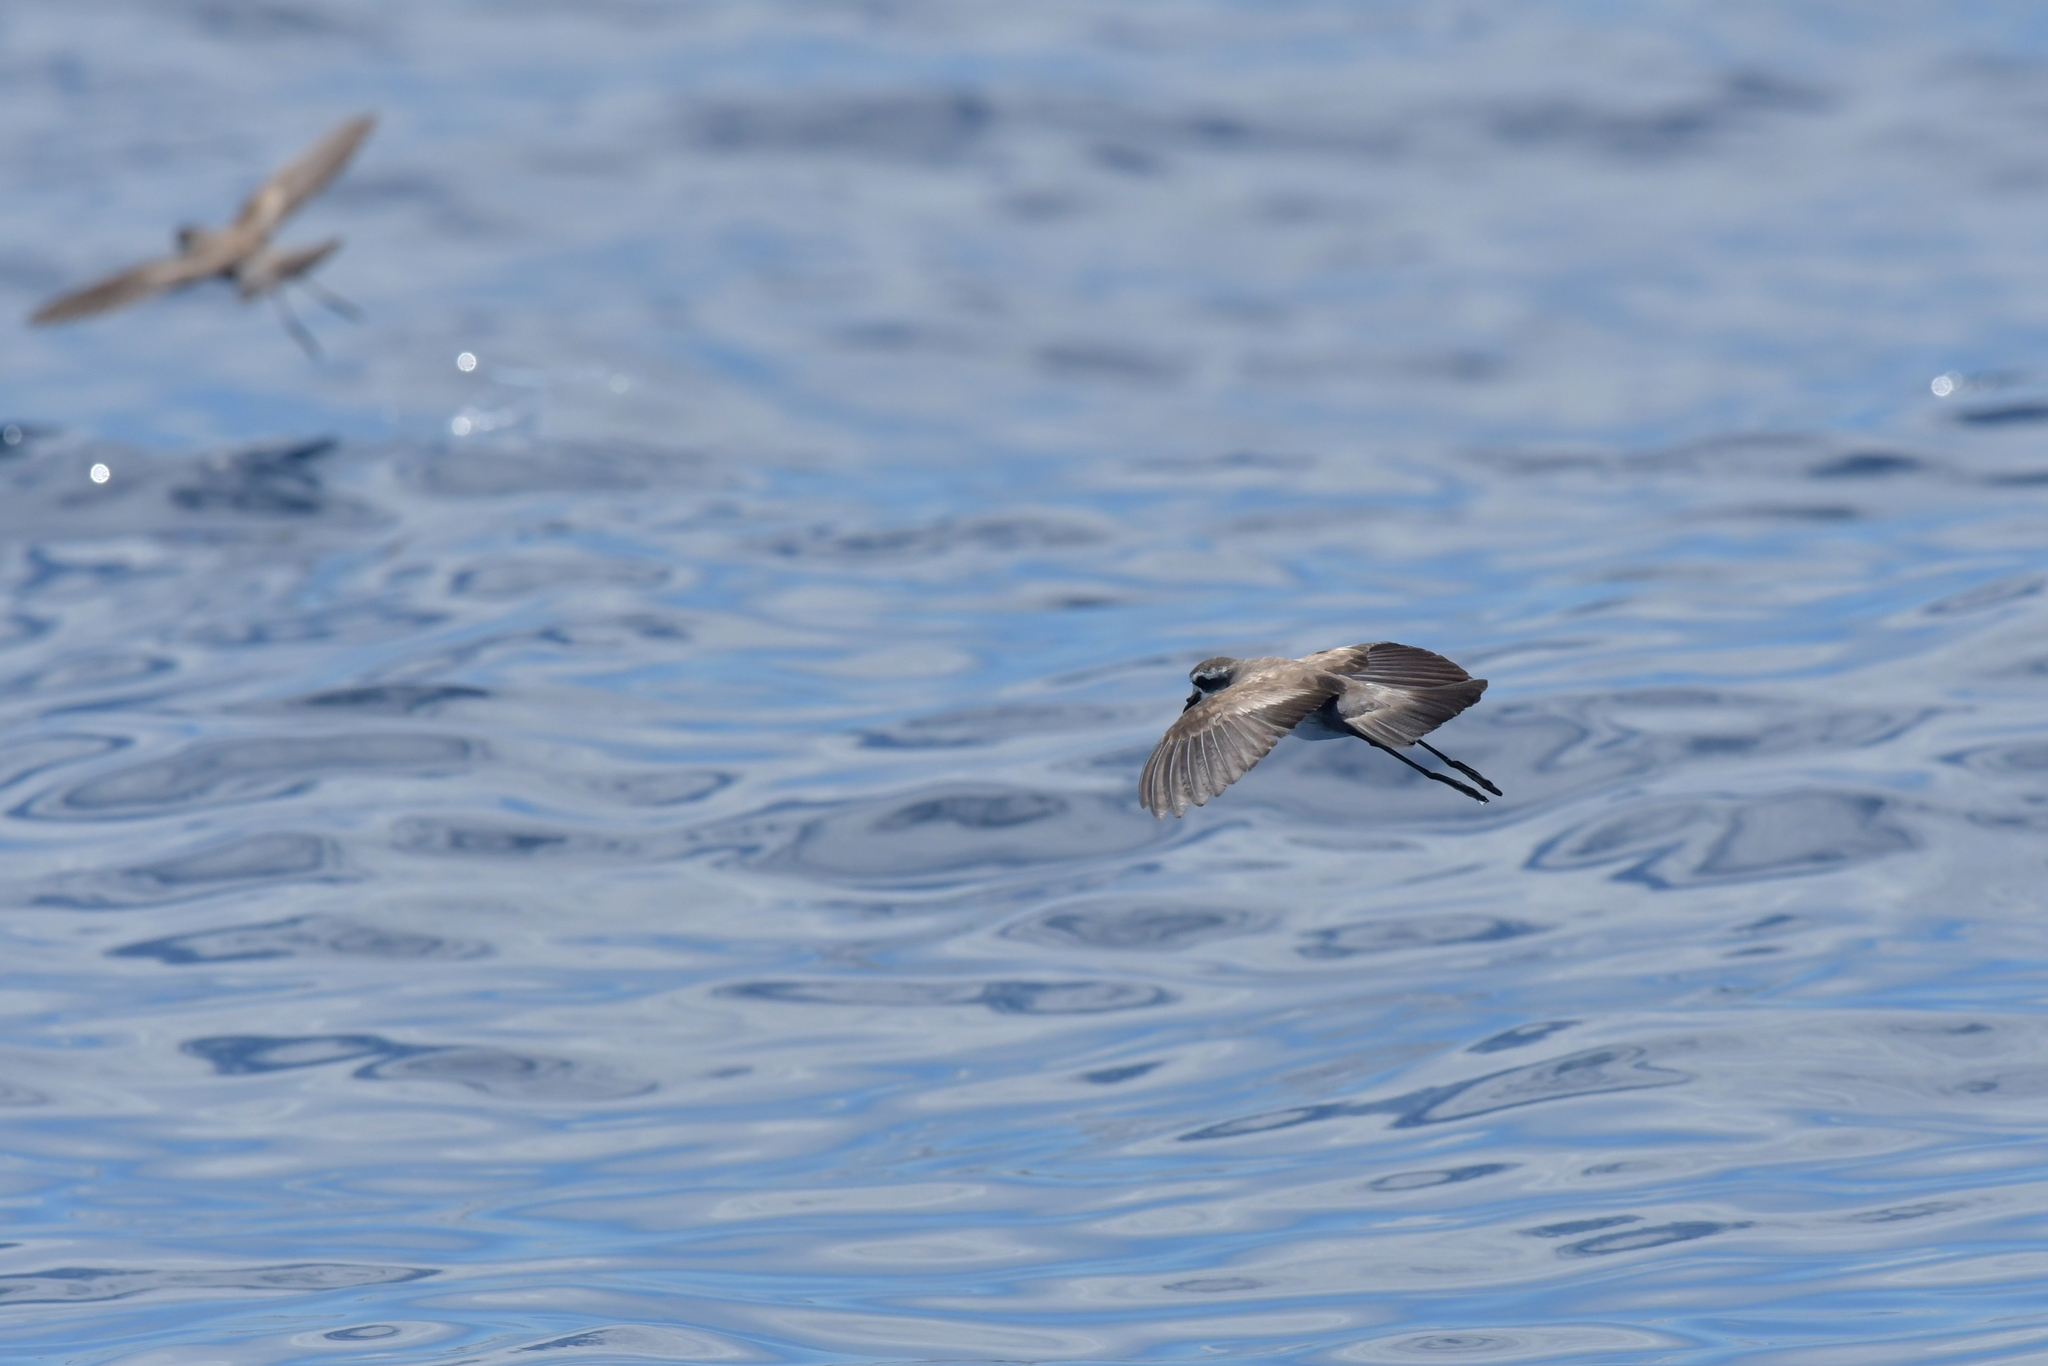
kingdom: Animalia
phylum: Chordata
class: Aves
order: Procellariiformes
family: Hydrobatidae
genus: Pelagodroma
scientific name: Pelagodroma marina
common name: White-faced storm-petrel
